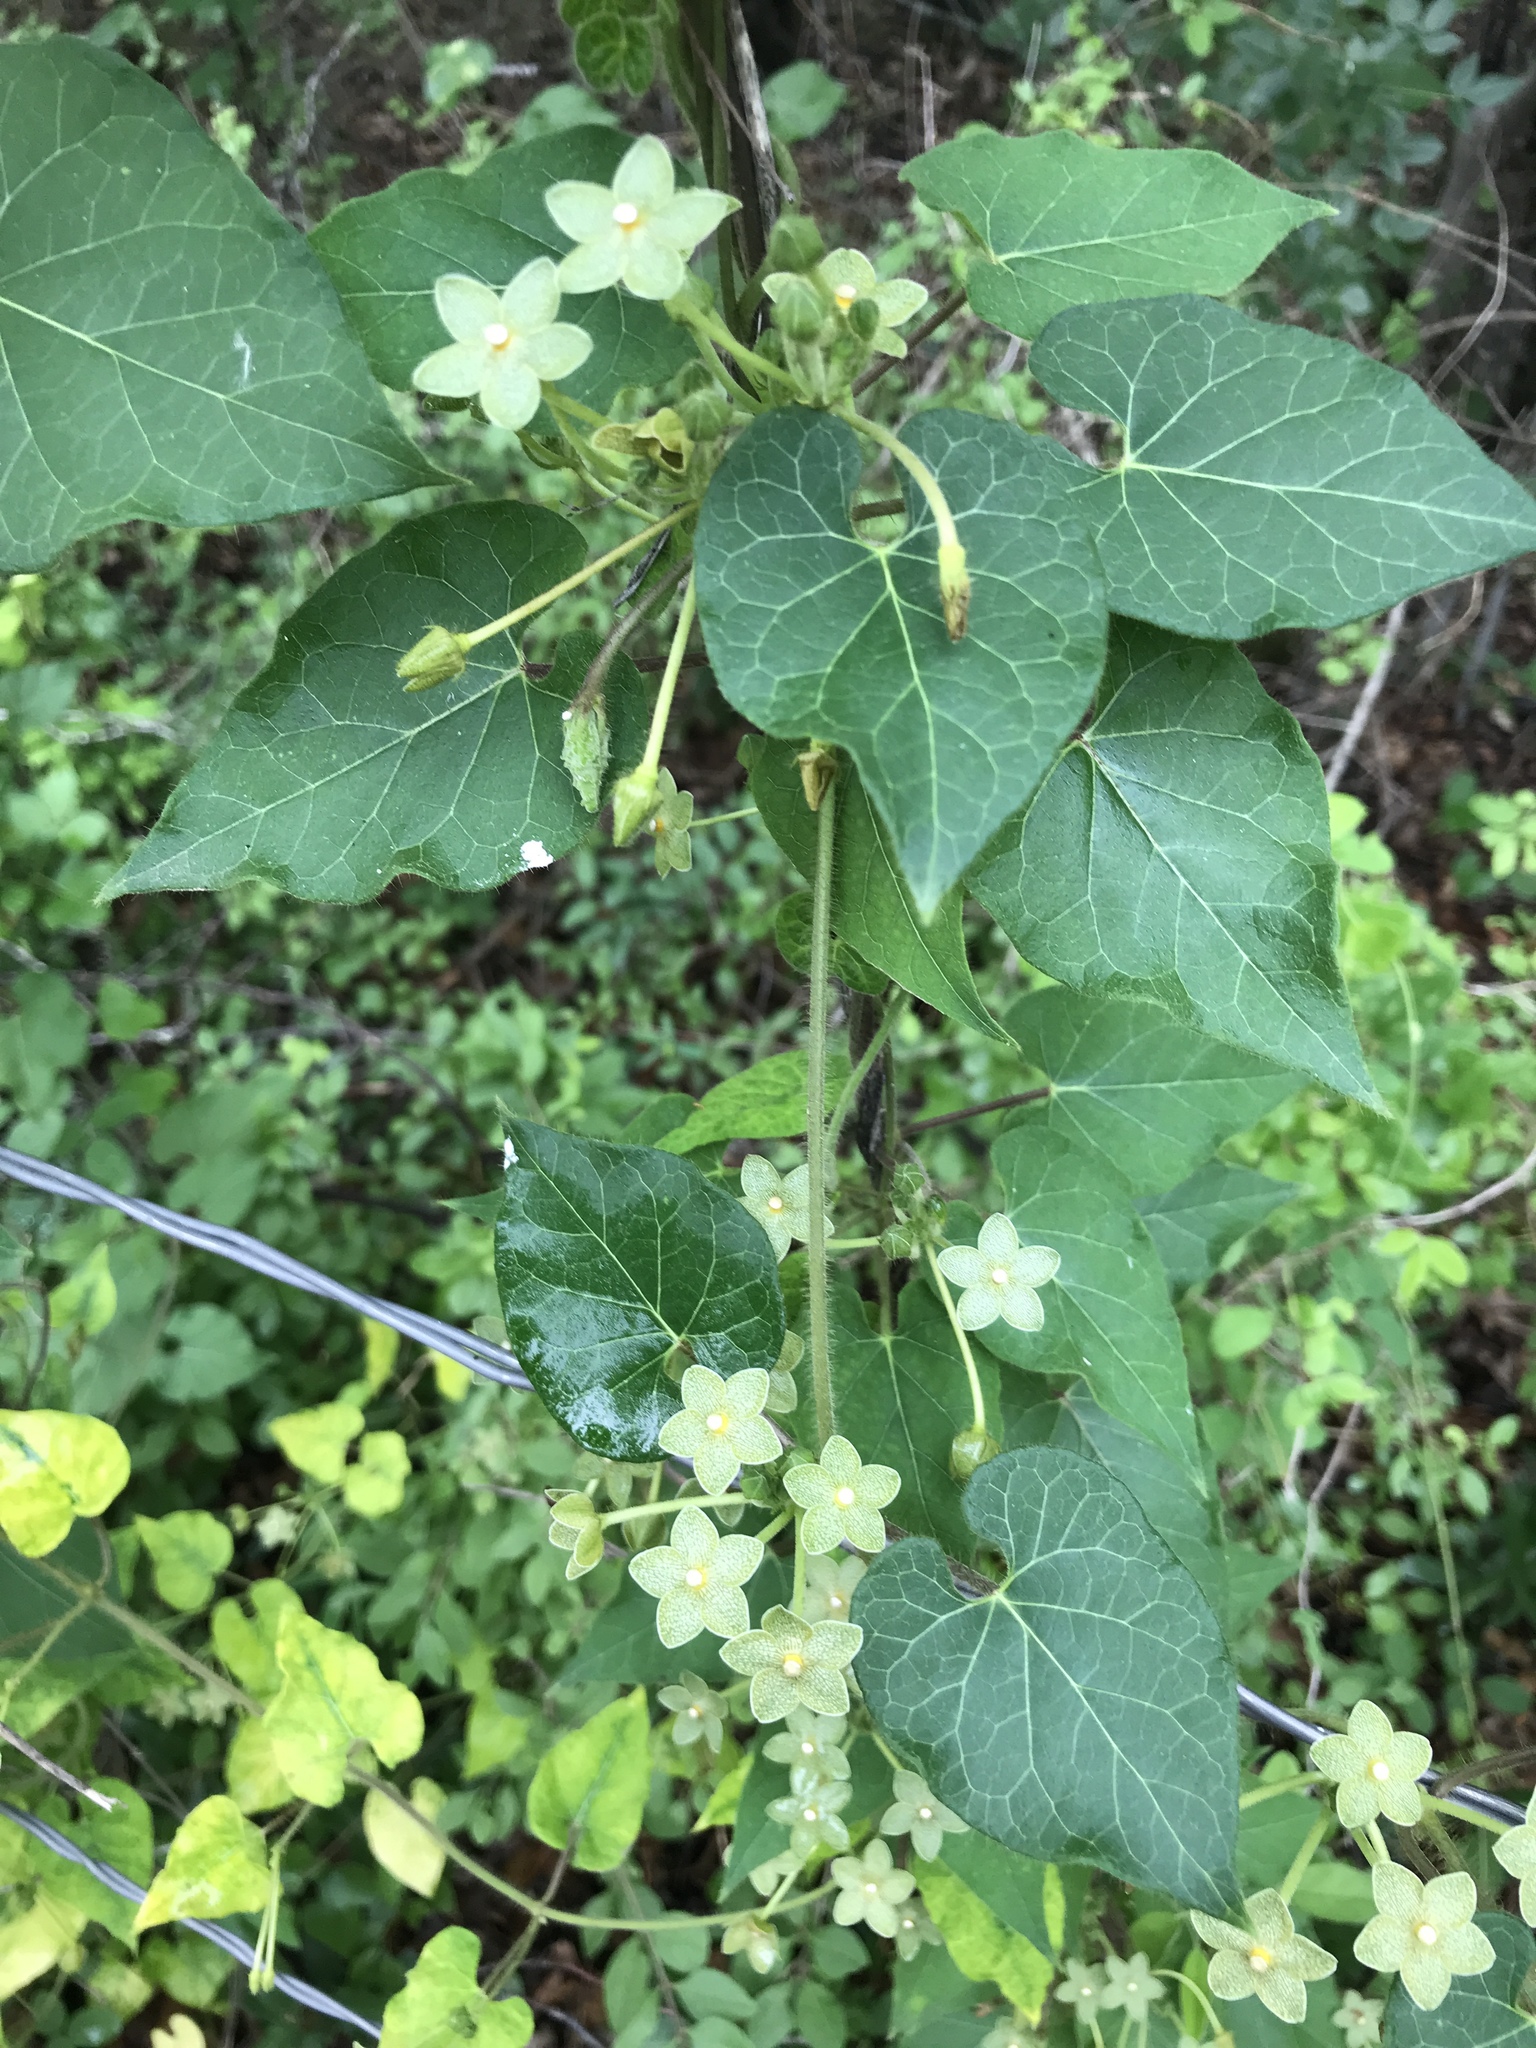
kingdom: Plantae
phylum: Tracheophyta
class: Magnoliopsida
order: Gentianales
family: Apocynaceae
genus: Dictyanthus
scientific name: Dictyanthus reticulatus
